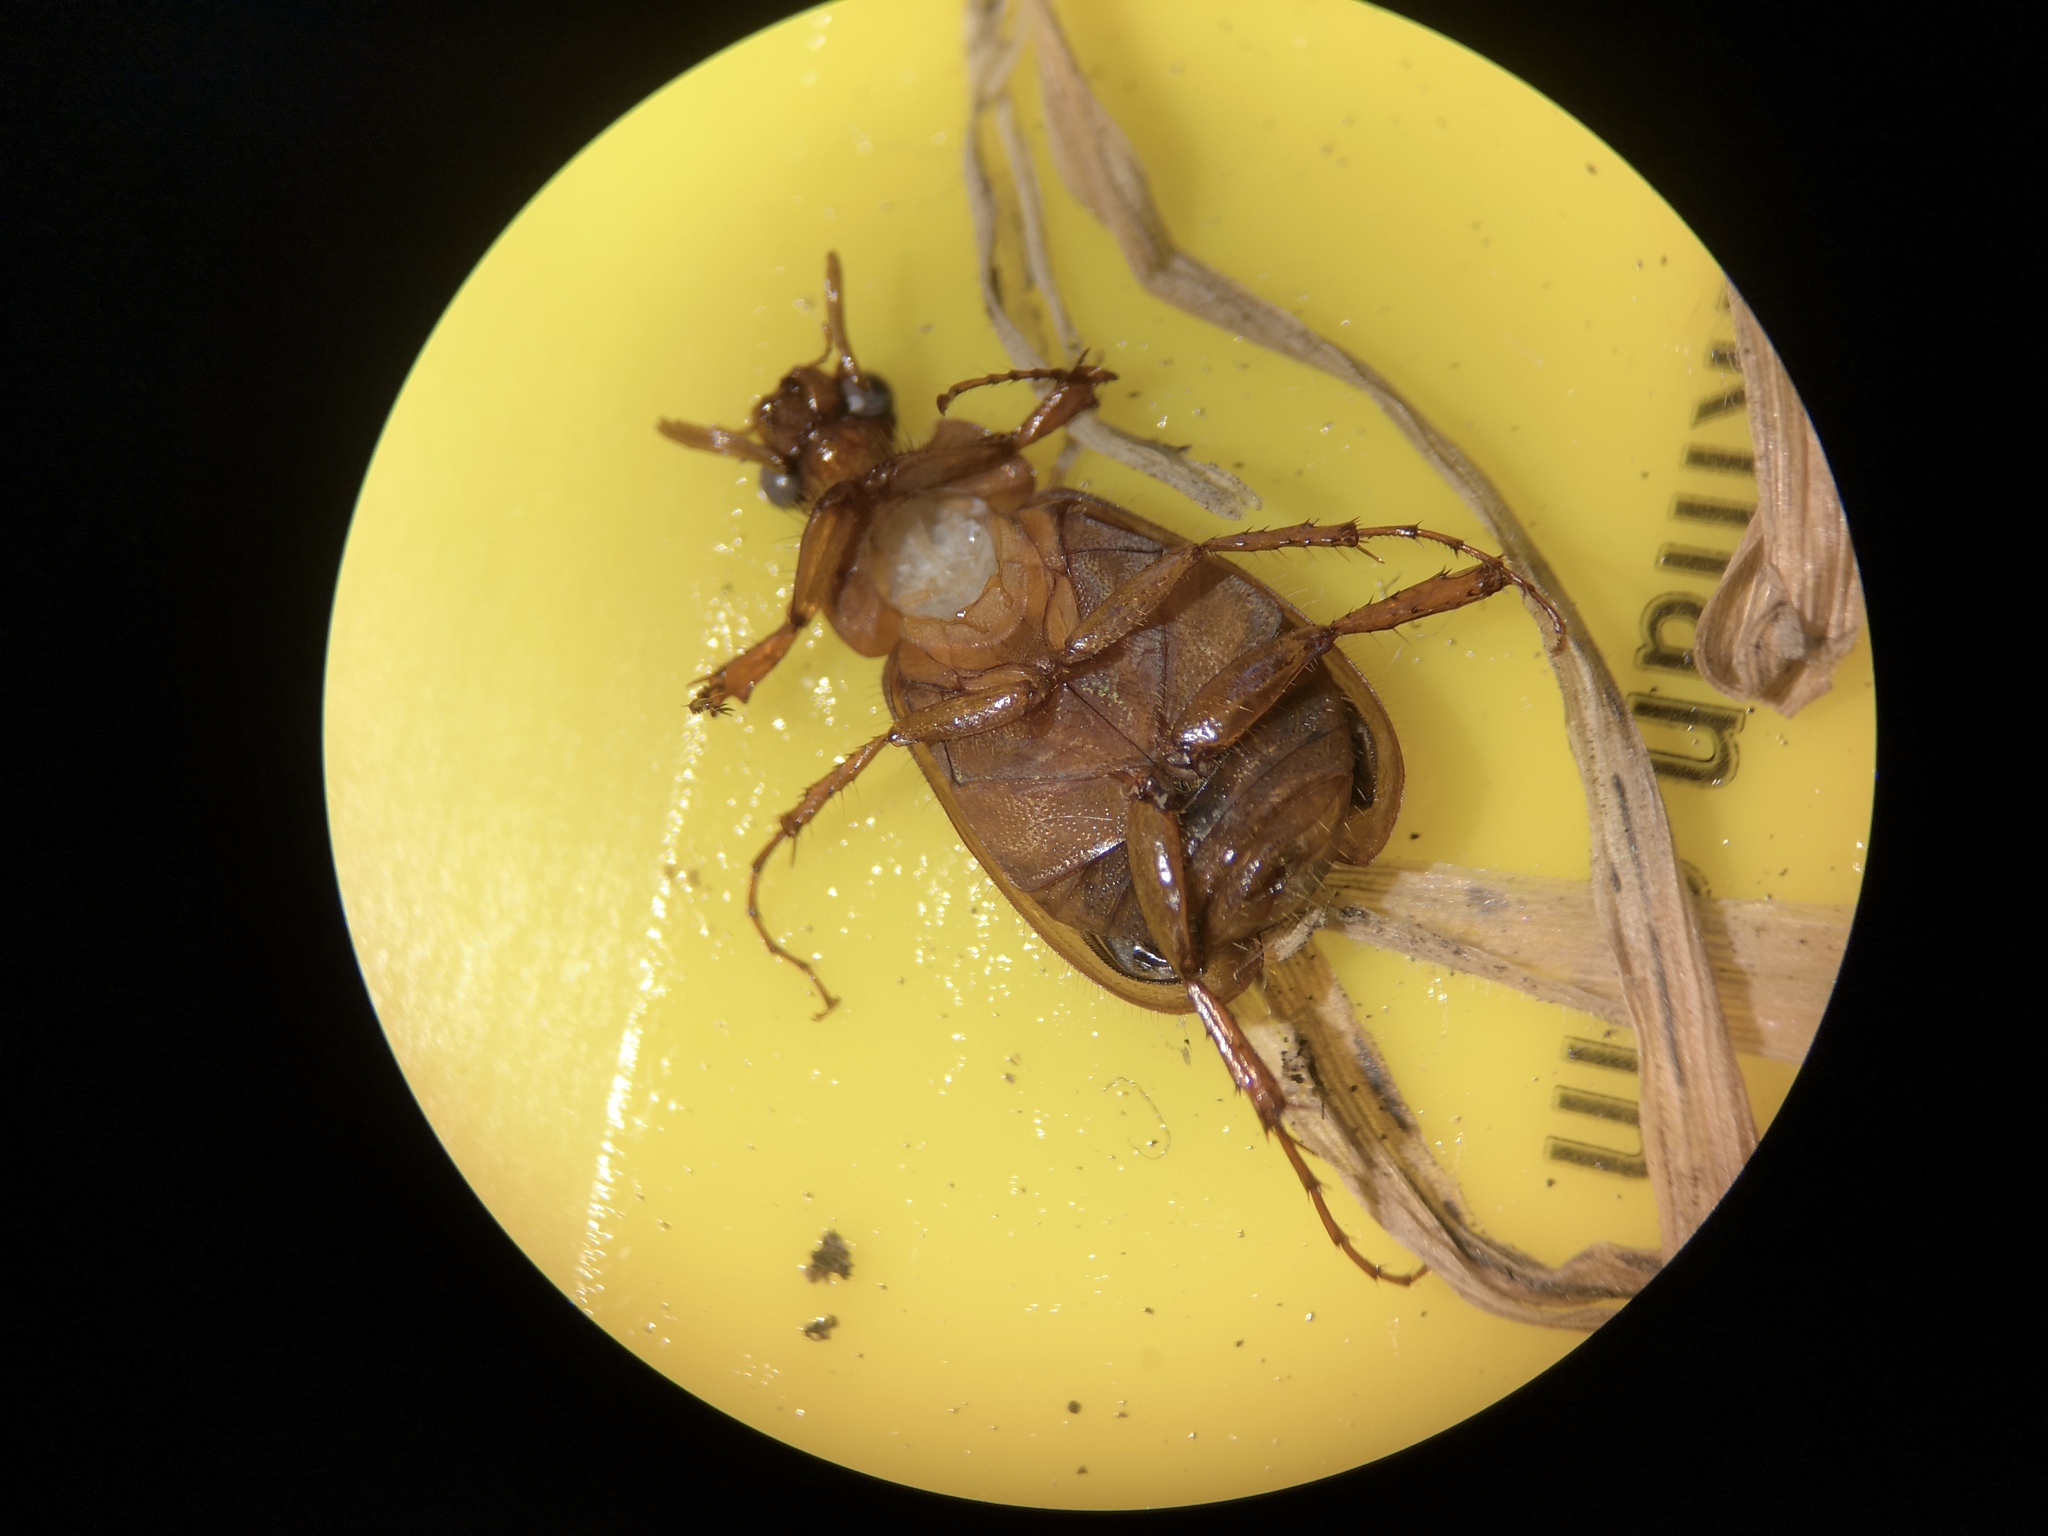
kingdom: Animalia
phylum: Arthropoda
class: Insecta
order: Coleoptera
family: Scarabaeidae
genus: Serica
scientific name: Serica brunnea
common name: Brown chafer
